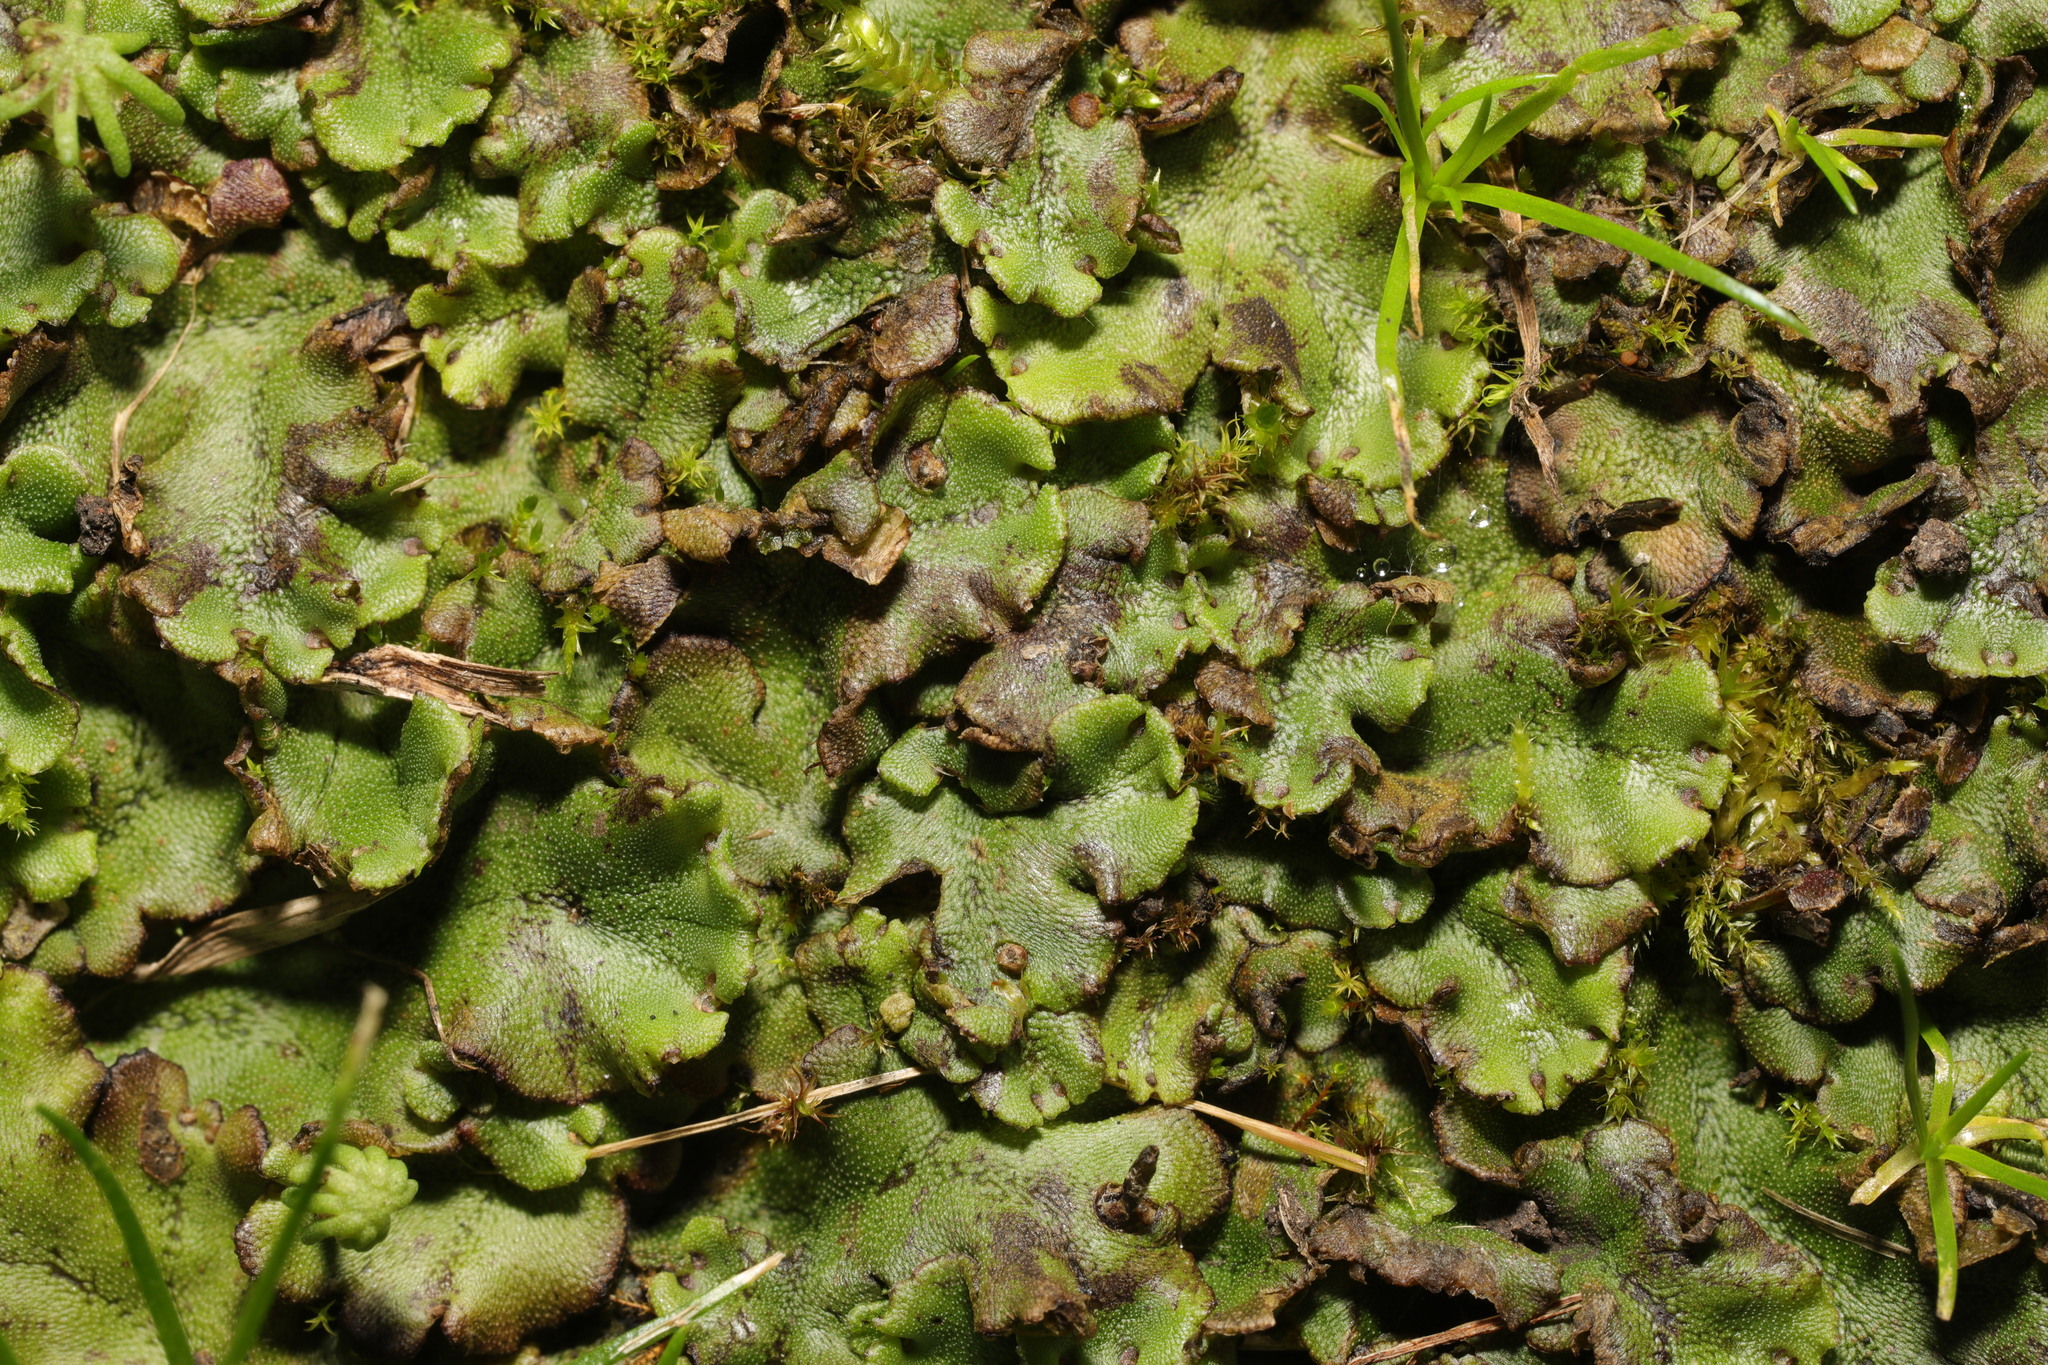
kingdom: Plantae
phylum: Marchantiophyta
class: Marchantiopsida
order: Marchantiales
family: Marchantiaceae
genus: Marchantia
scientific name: Marchantia polymorpha
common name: Common liverwort
